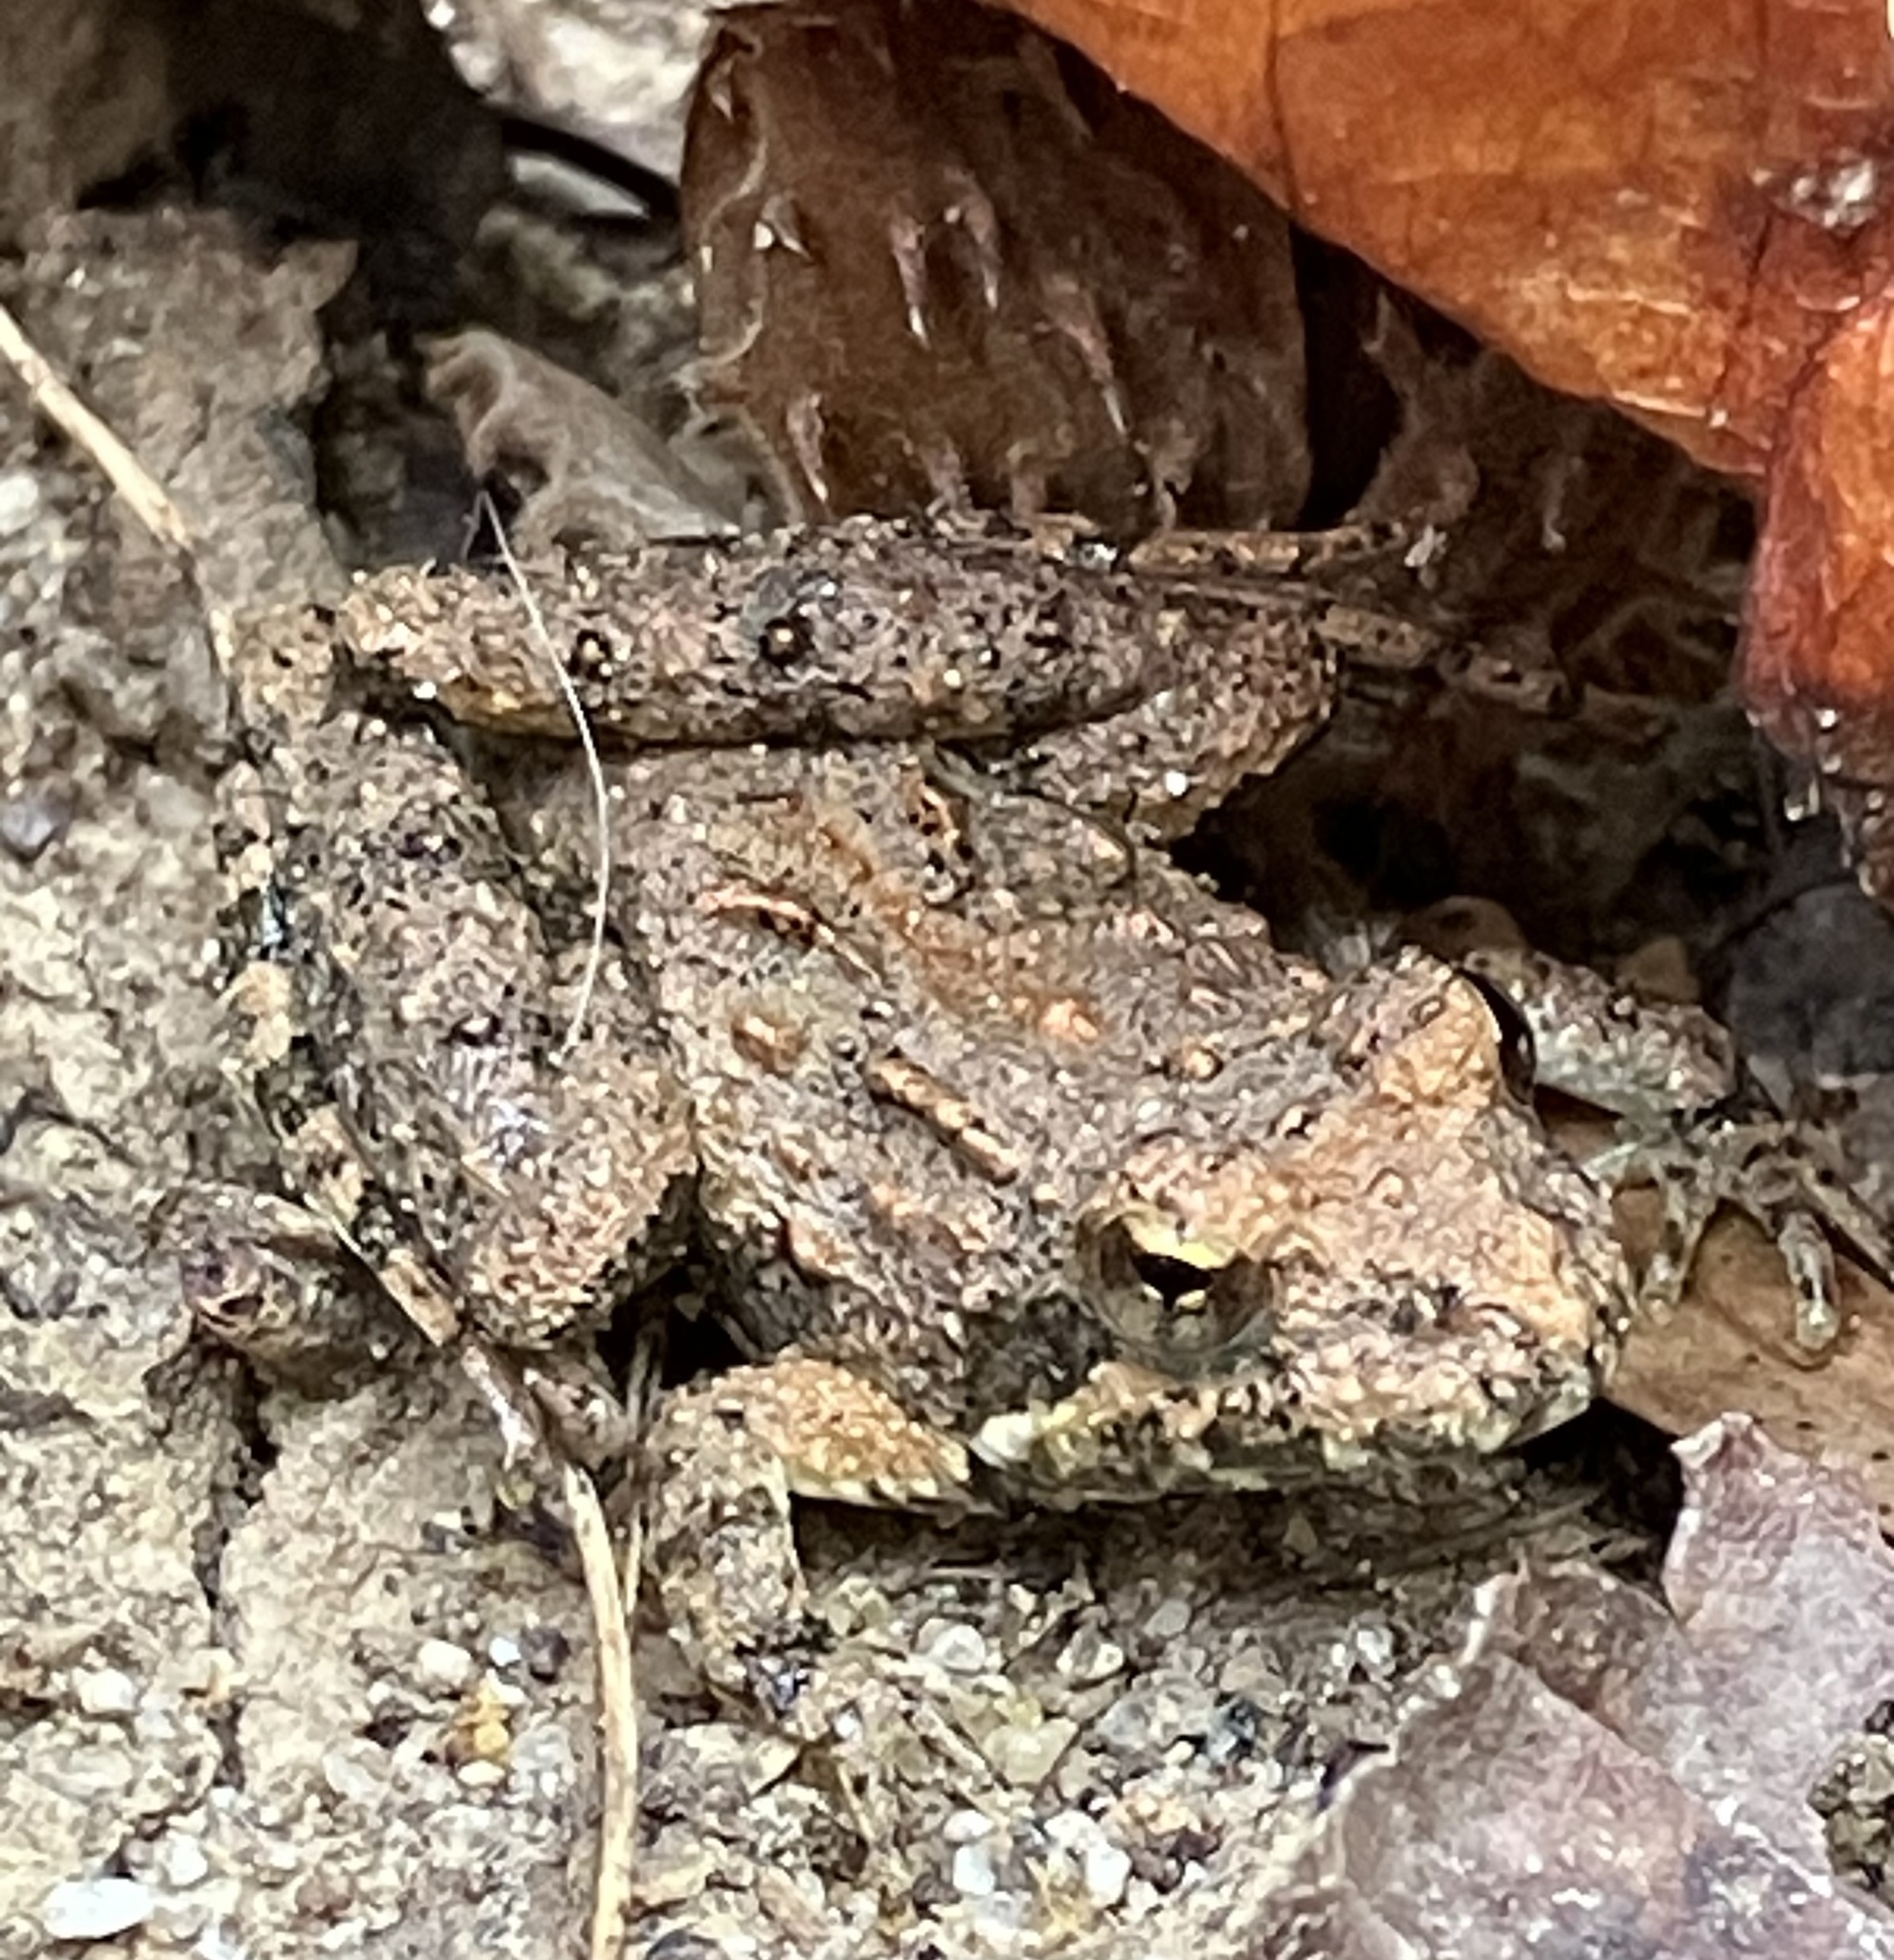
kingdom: Animalia
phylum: Chordata
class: Amphibia
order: Anura
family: Hylidae
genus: Acris
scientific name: Acris crepitans
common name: Northern cricket frog
